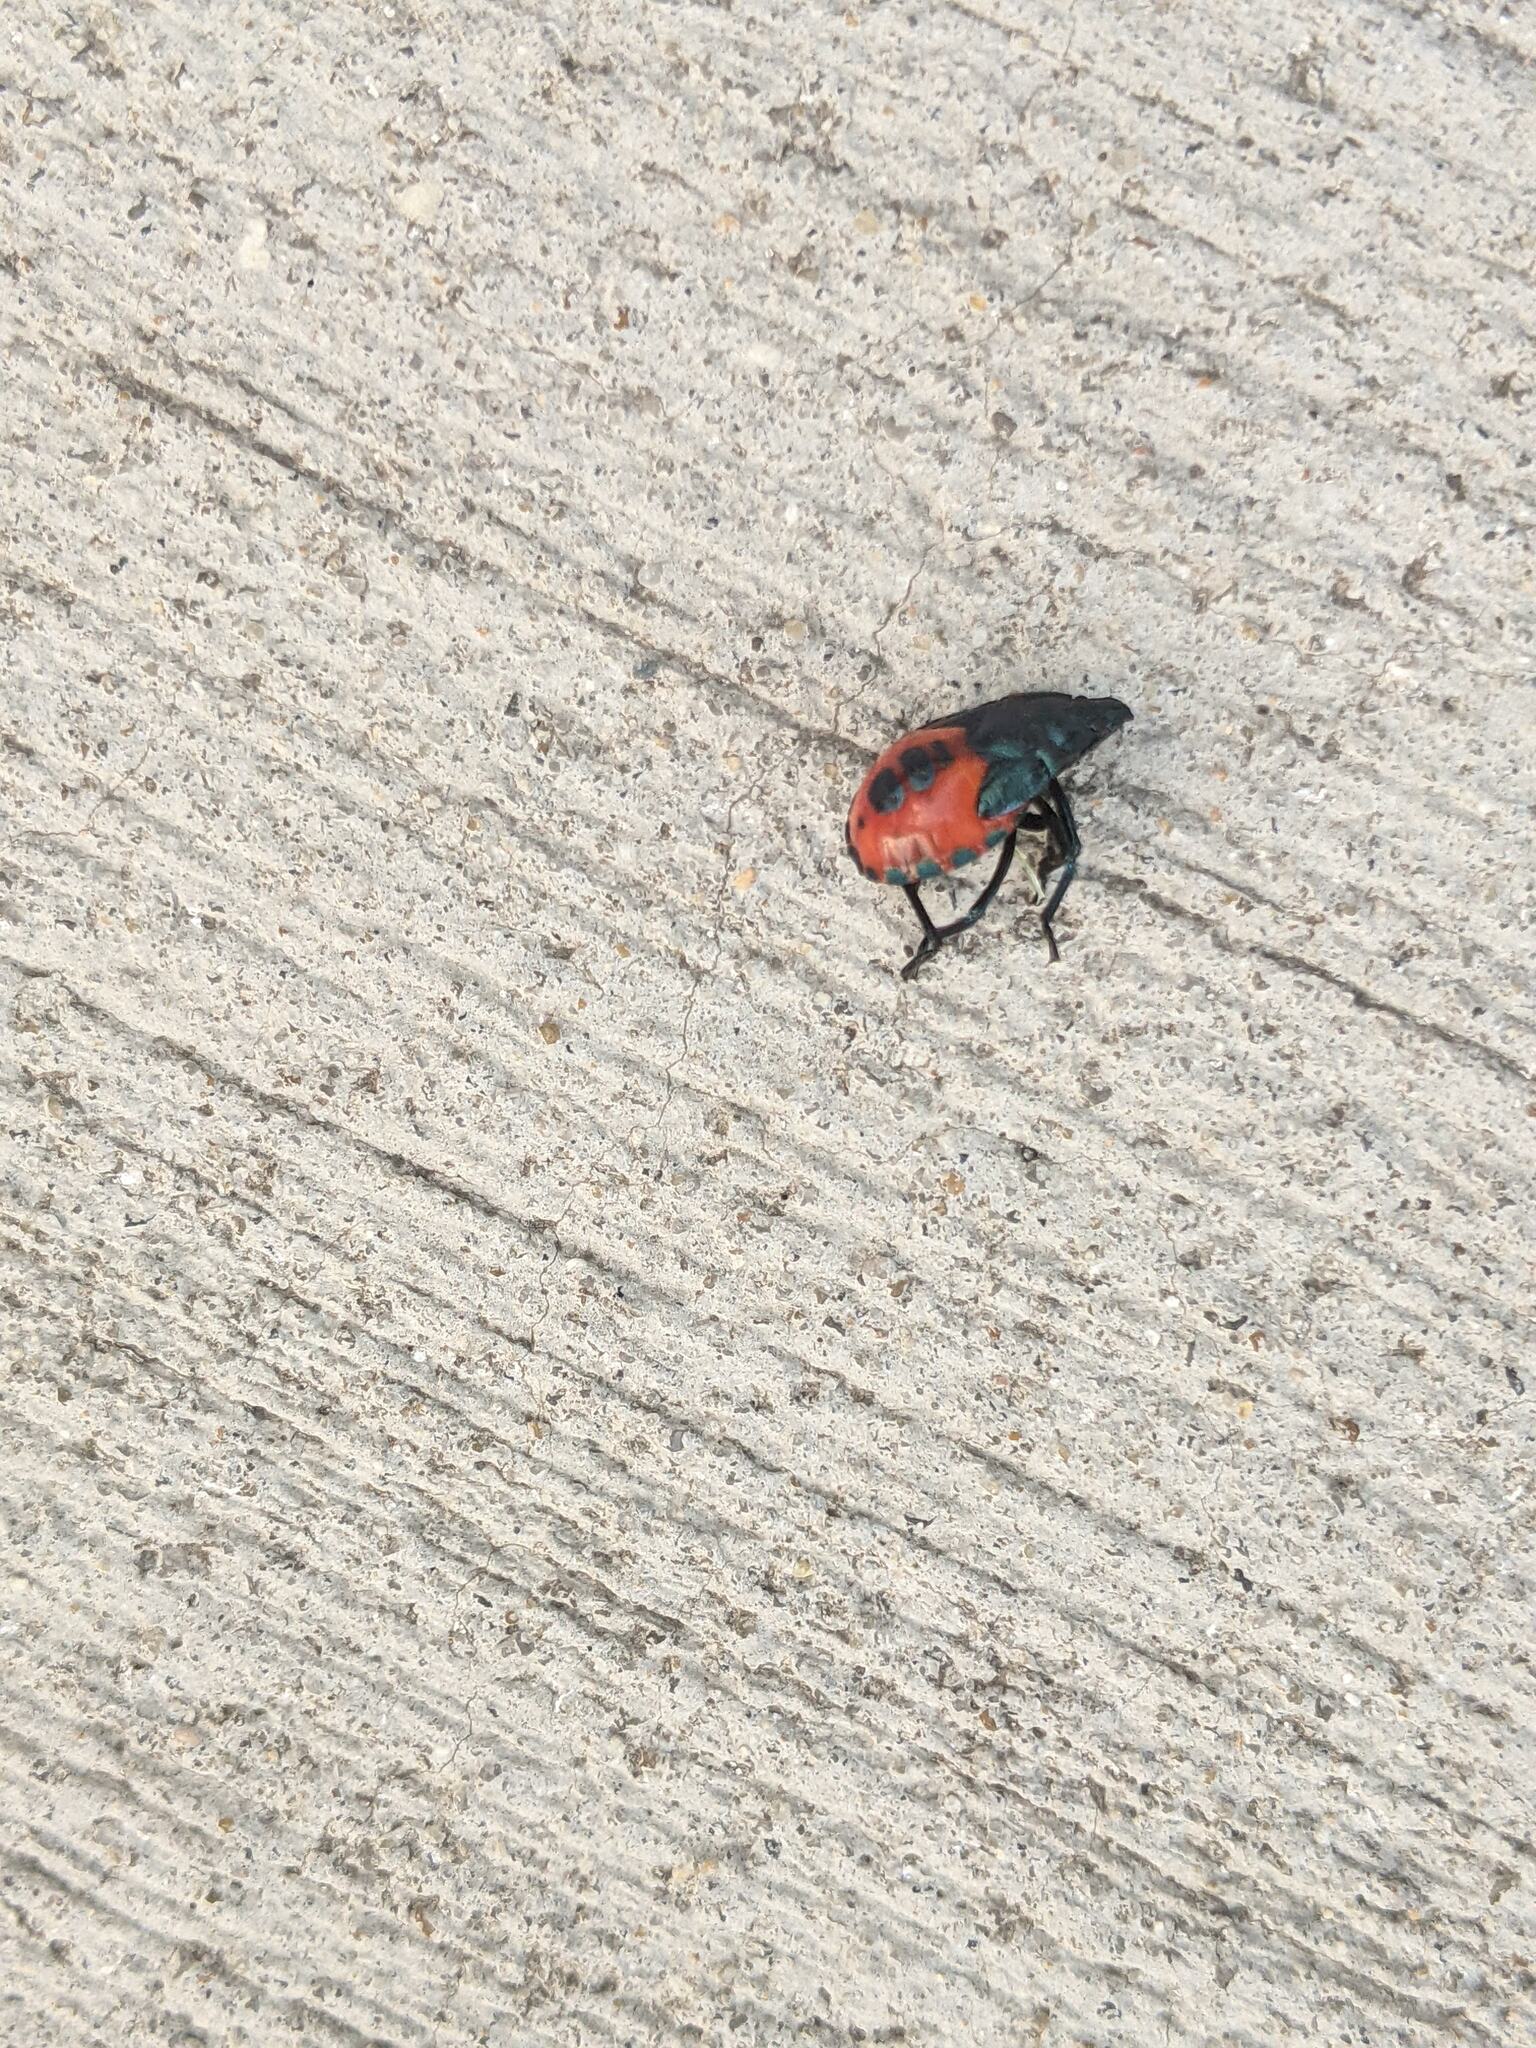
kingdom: Animalia
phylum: Arthropoda
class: Insecta
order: Hemiptera
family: Pentatomidae
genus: Euthyrhynchus
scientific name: Euthyrhynchus floridanus
